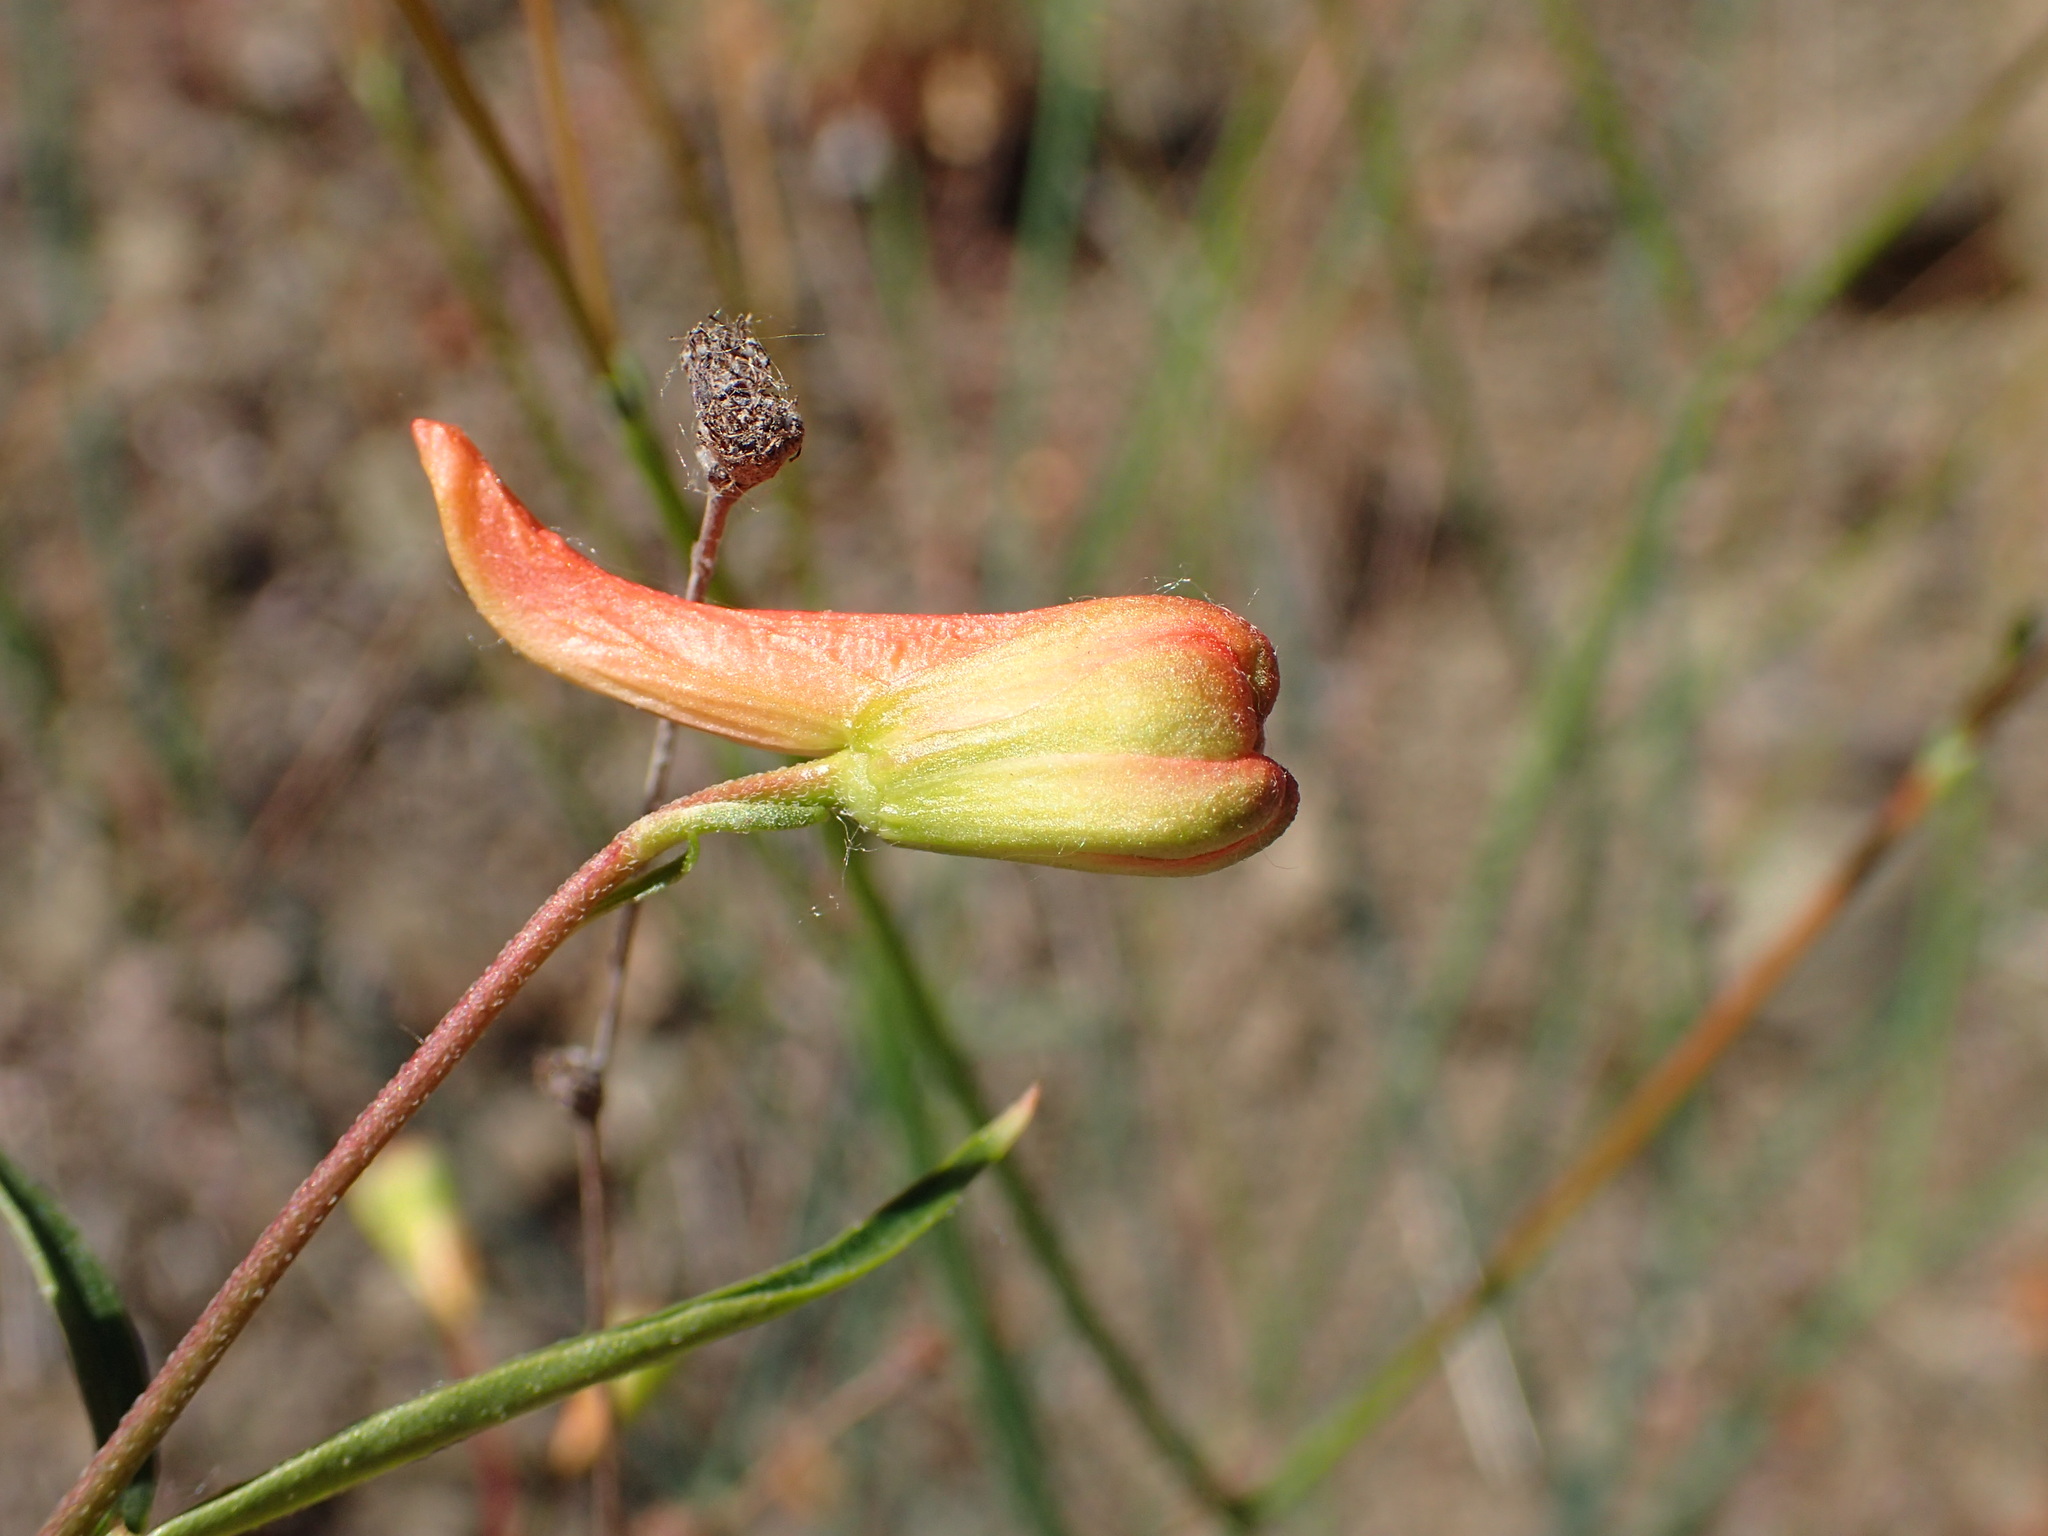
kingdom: Plantae
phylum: Tracheophyta
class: Magnoliopsida
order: Ranunculales
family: Ranunculaceae
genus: Delphinium
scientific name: Delphinium cardinale
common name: Scarlet larkspur
